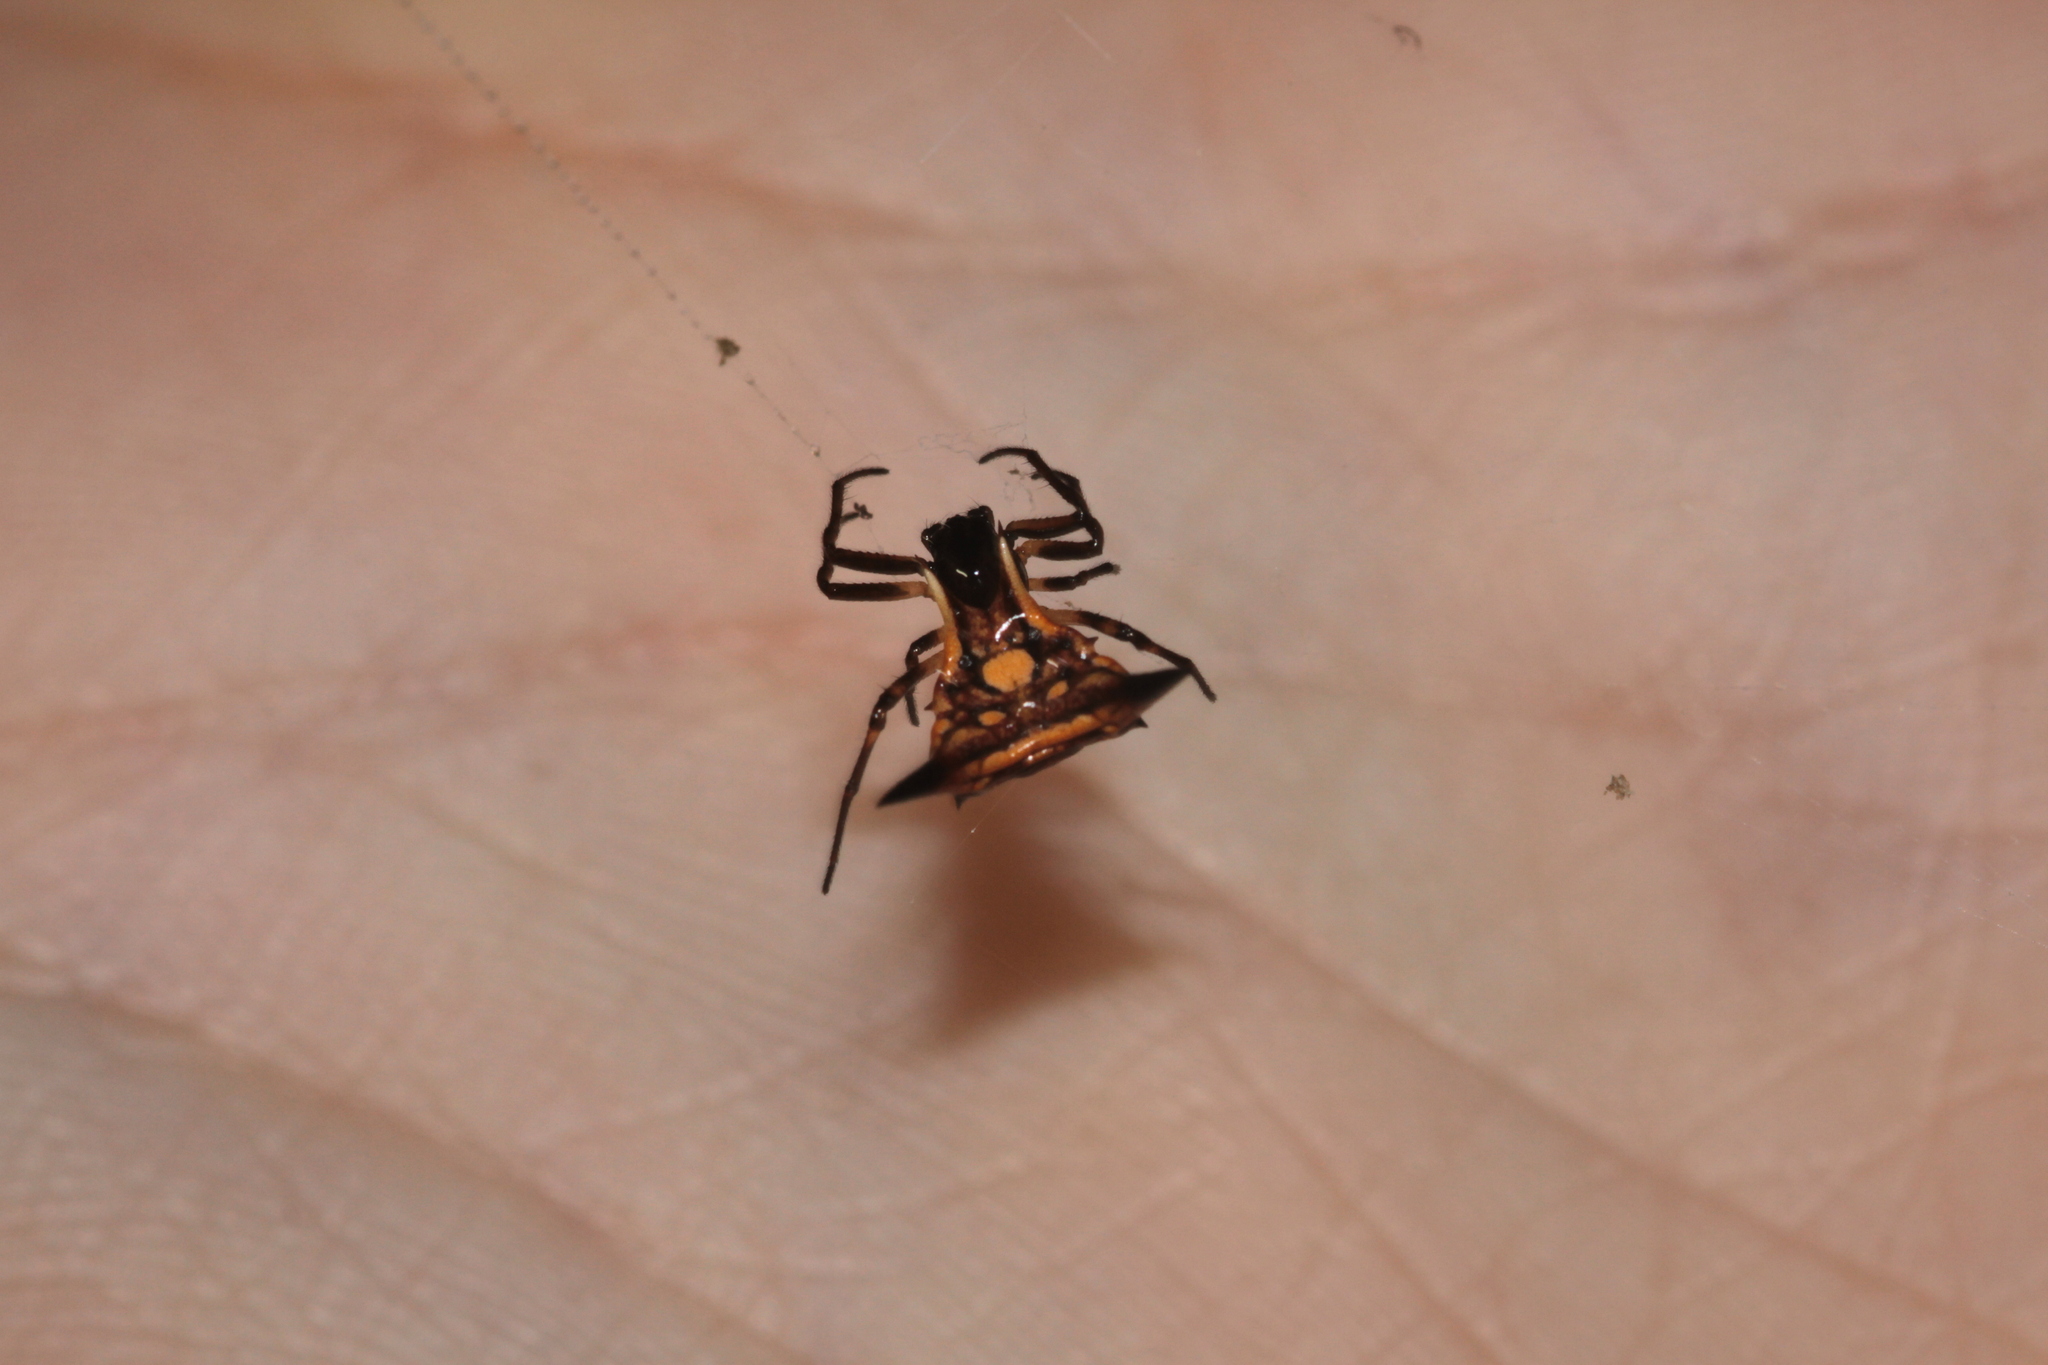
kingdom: Animalia
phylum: Arthropoda
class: Arachnida
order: Araneae
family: Araneidae
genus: Micrathena
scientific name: Micrathena triangularispinosa
